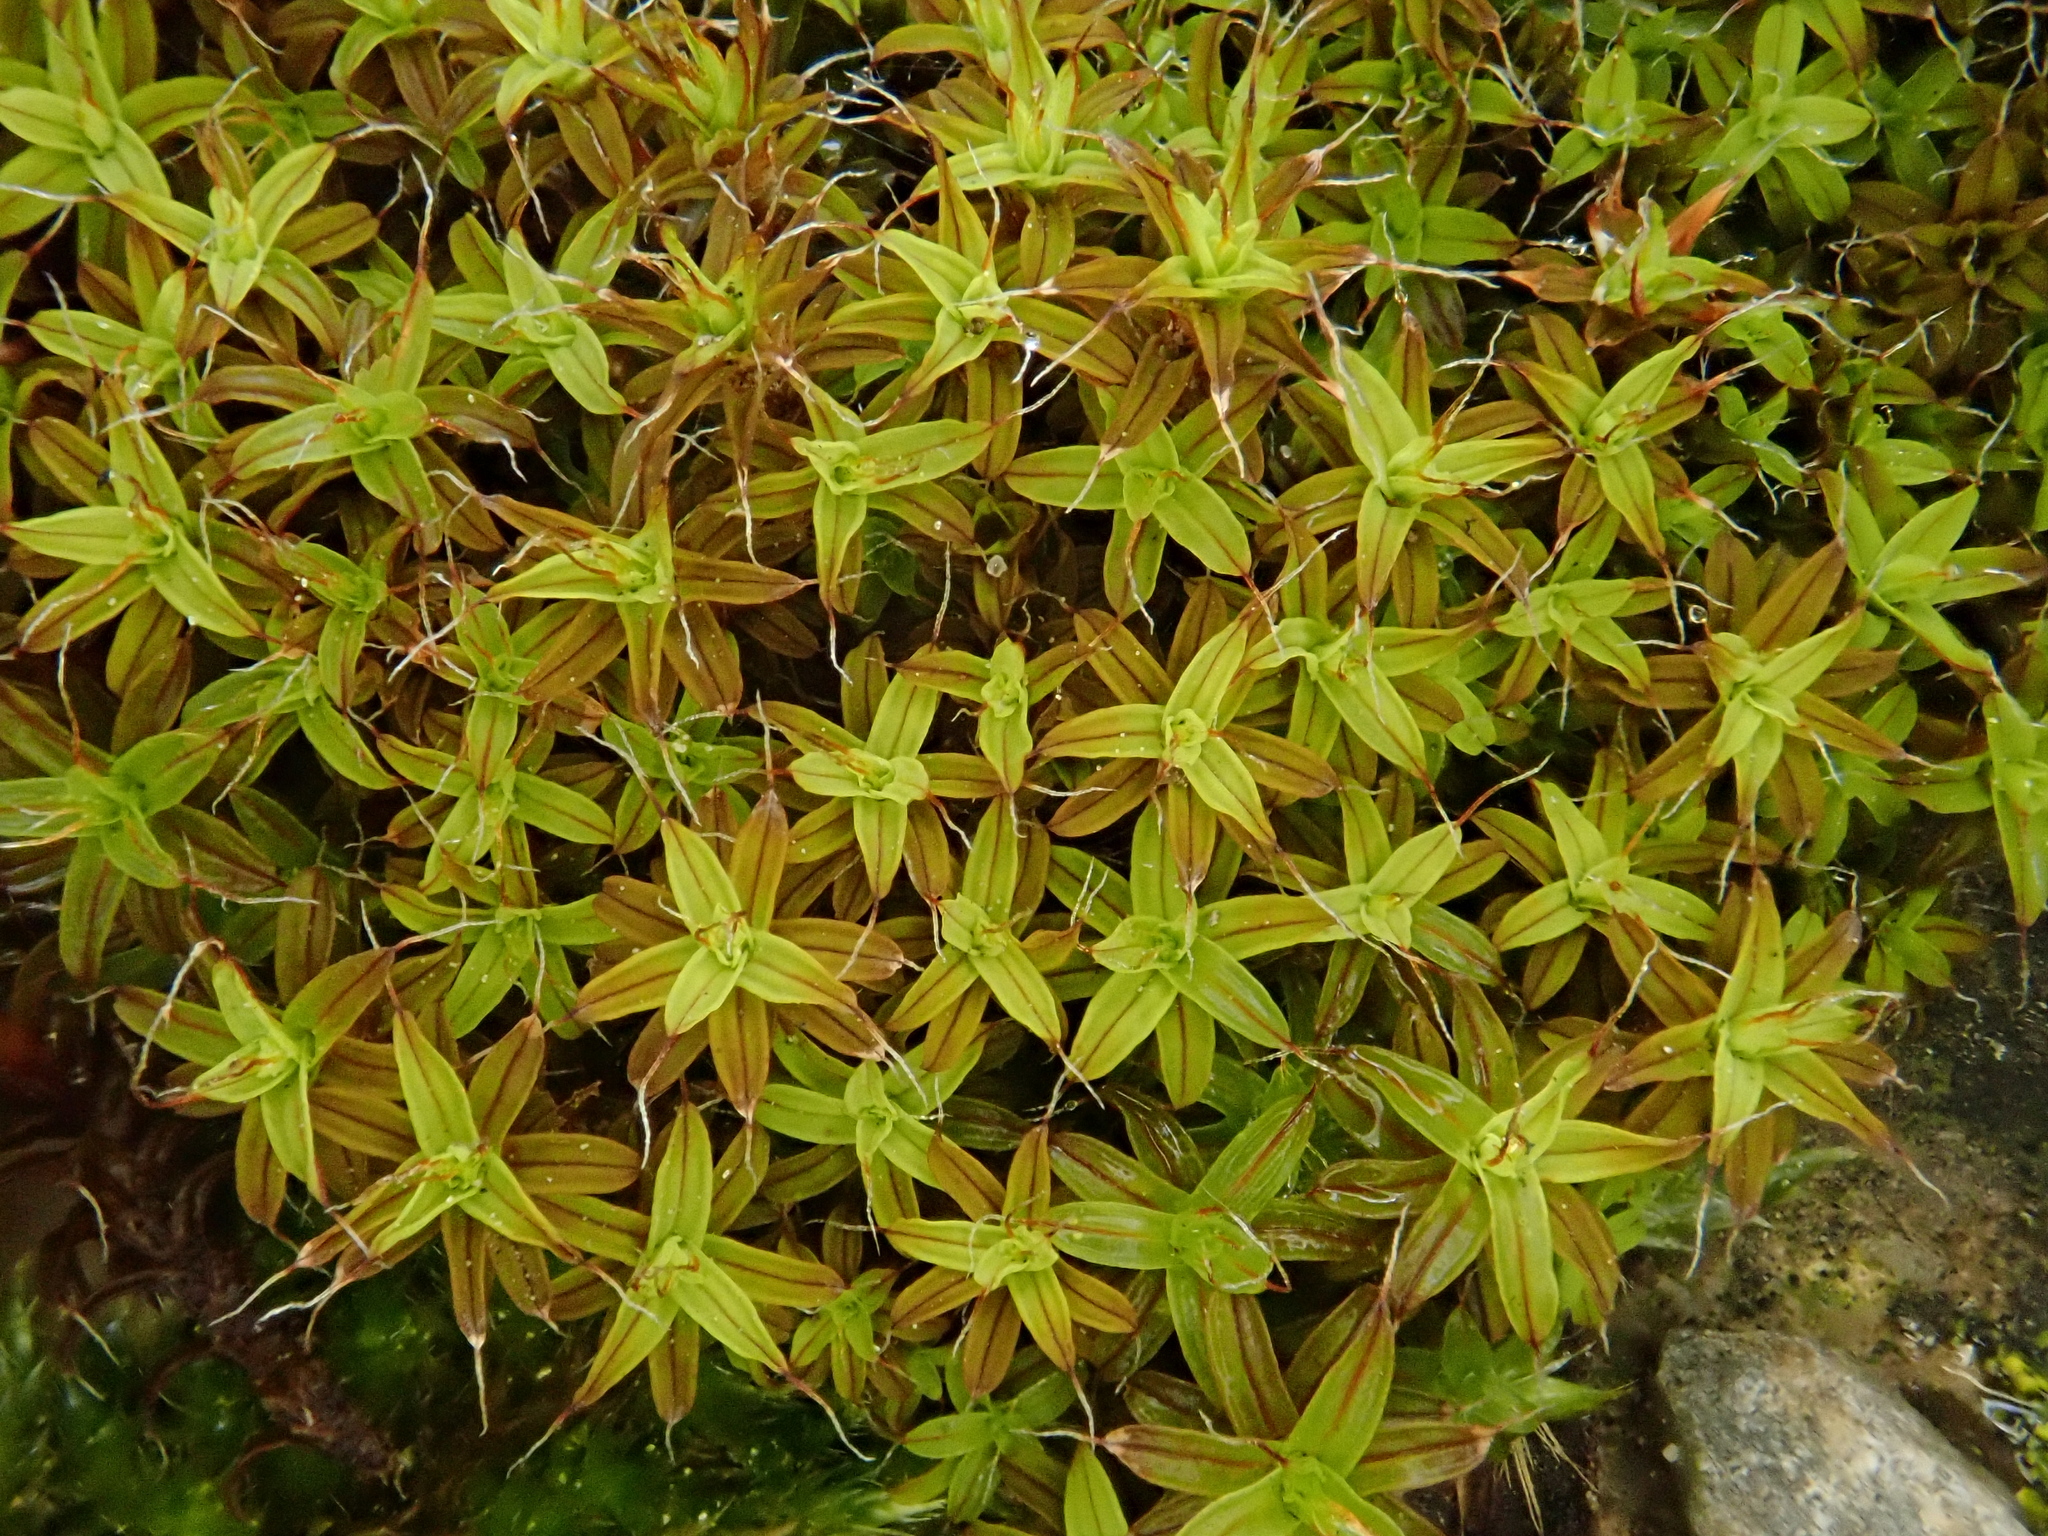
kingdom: Plantae
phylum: Bryophyta
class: Bryopsida
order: Pottiales
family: Pottiaceae
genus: Syntrichia
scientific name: Syntrichia ruralis
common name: Sidewalk screw moss
